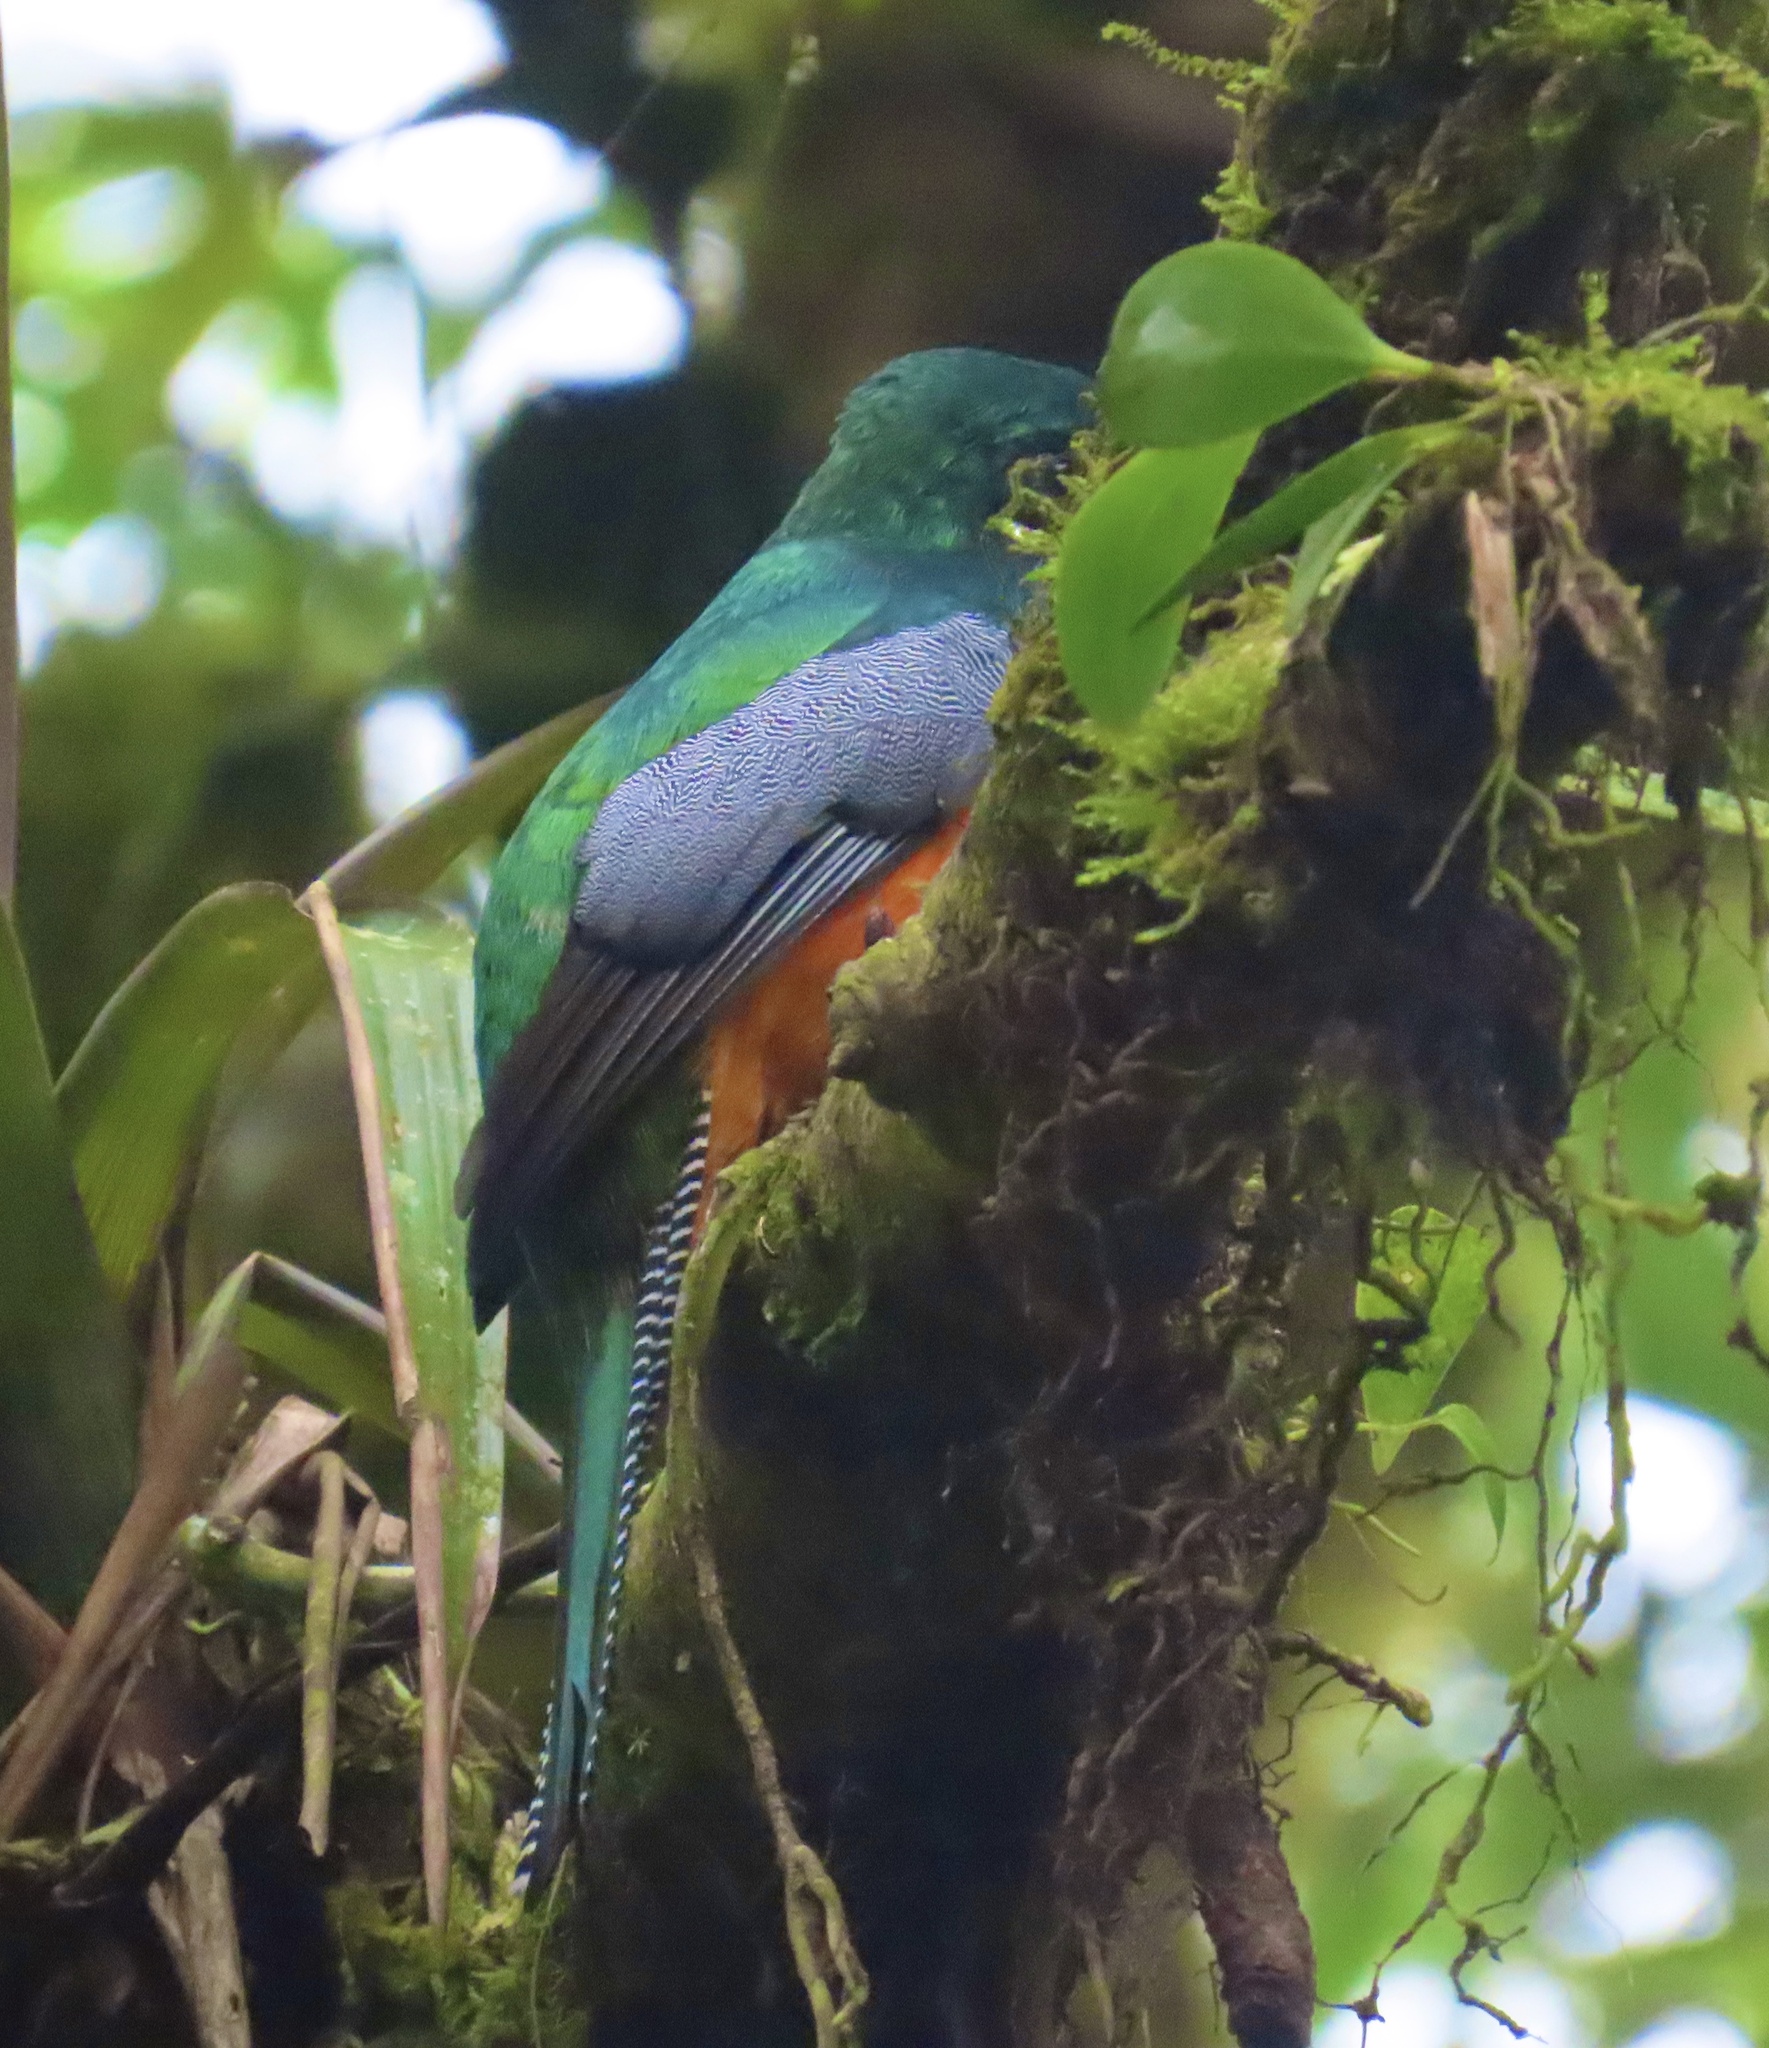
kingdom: Animalia
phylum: Chordata
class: Aves
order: Trogoniformes
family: Trogonidae
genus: Trogon
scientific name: Trogon collaris
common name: Collared trogon
